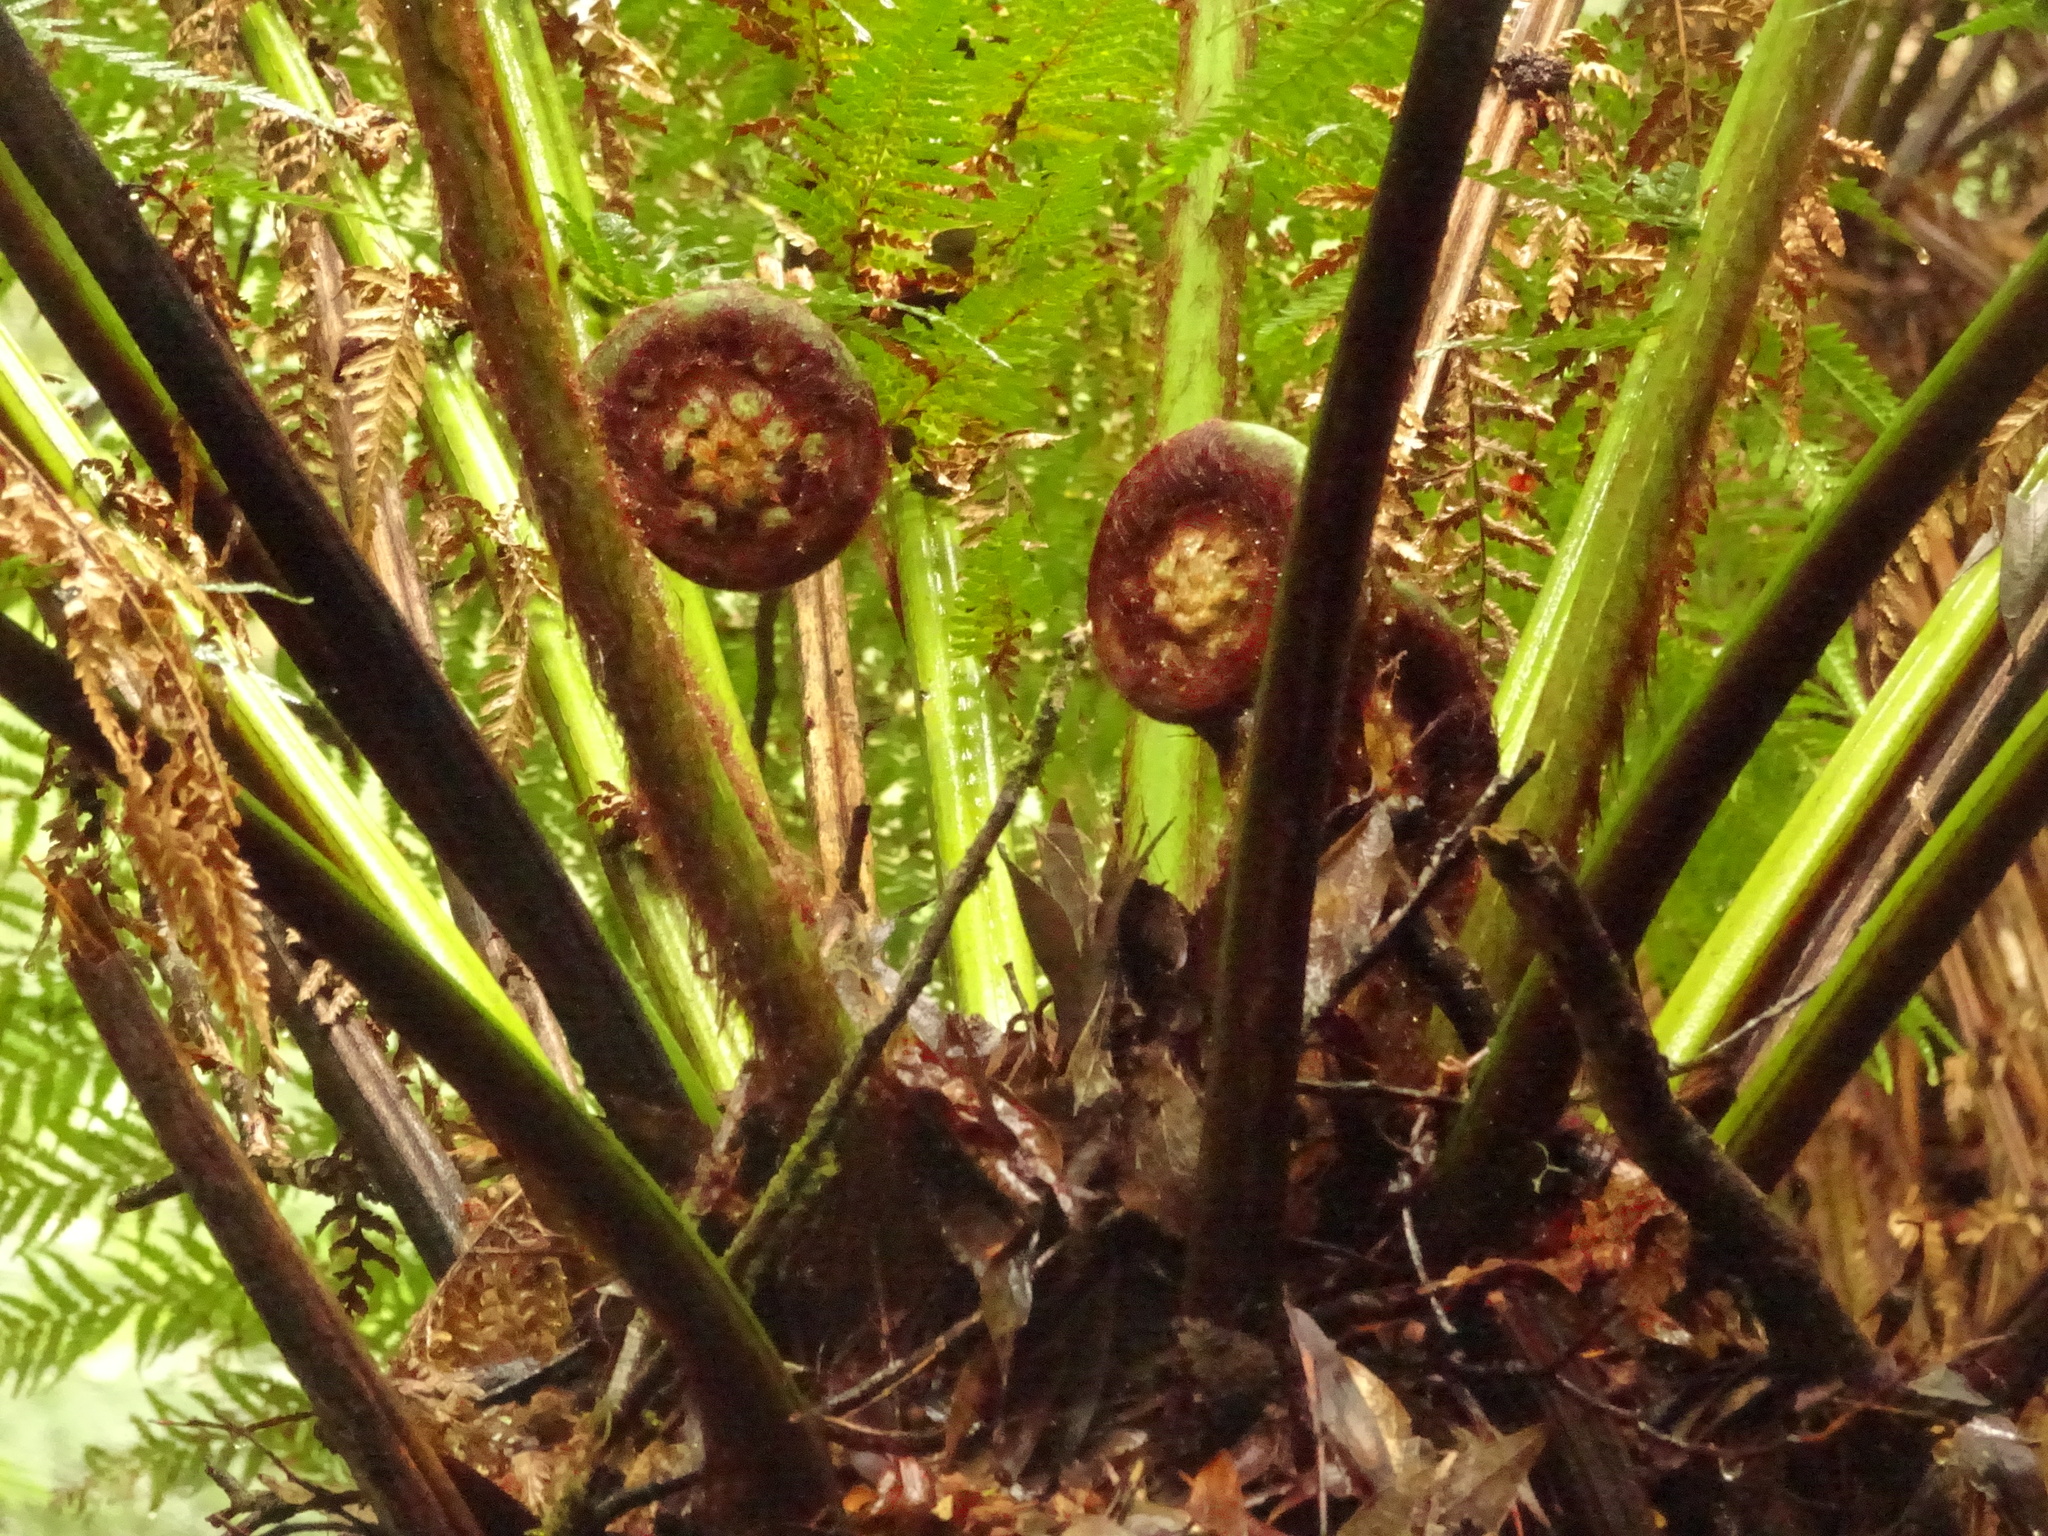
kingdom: Plantae
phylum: Tracheophyta
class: Polypodiopsida
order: Cyatheales
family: Dicksoniaceae
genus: Dicksonia
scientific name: Dicksonia antarctica
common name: Australian treefern
